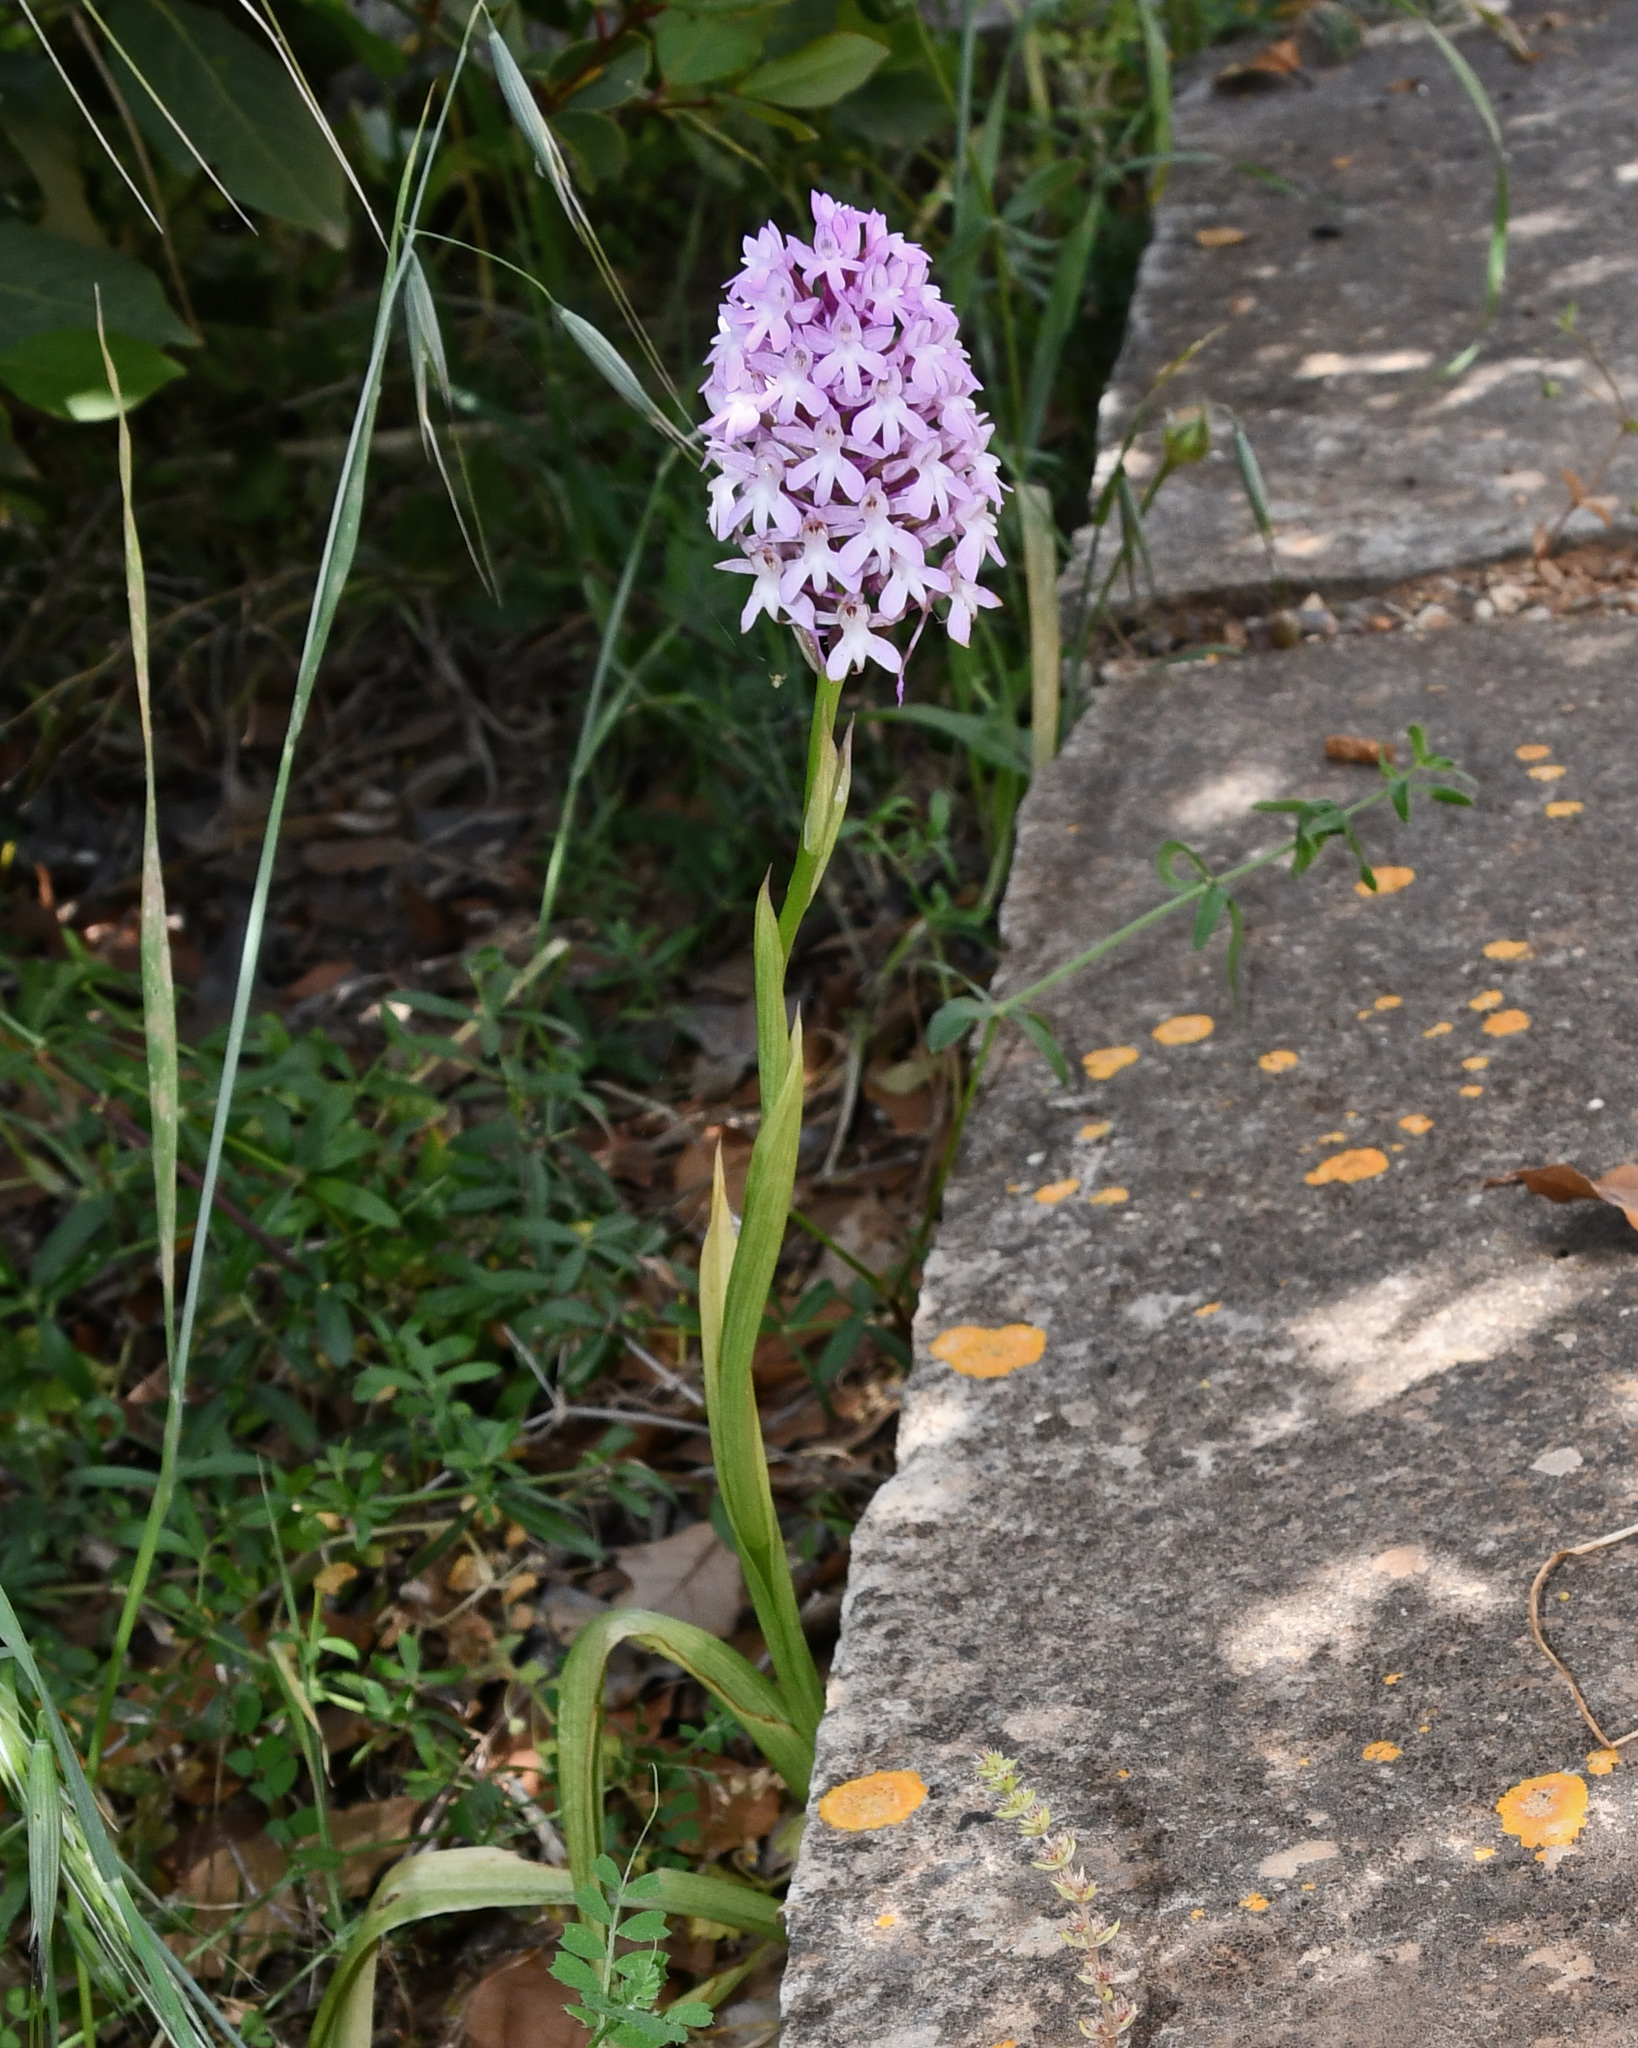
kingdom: Plantae
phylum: Tracheophyta
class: Liliopsida
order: Asparagales
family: Orchidaceae
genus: Anacamptis
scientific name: Anacamptis pyramidalis
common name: Pyramidal orchid
